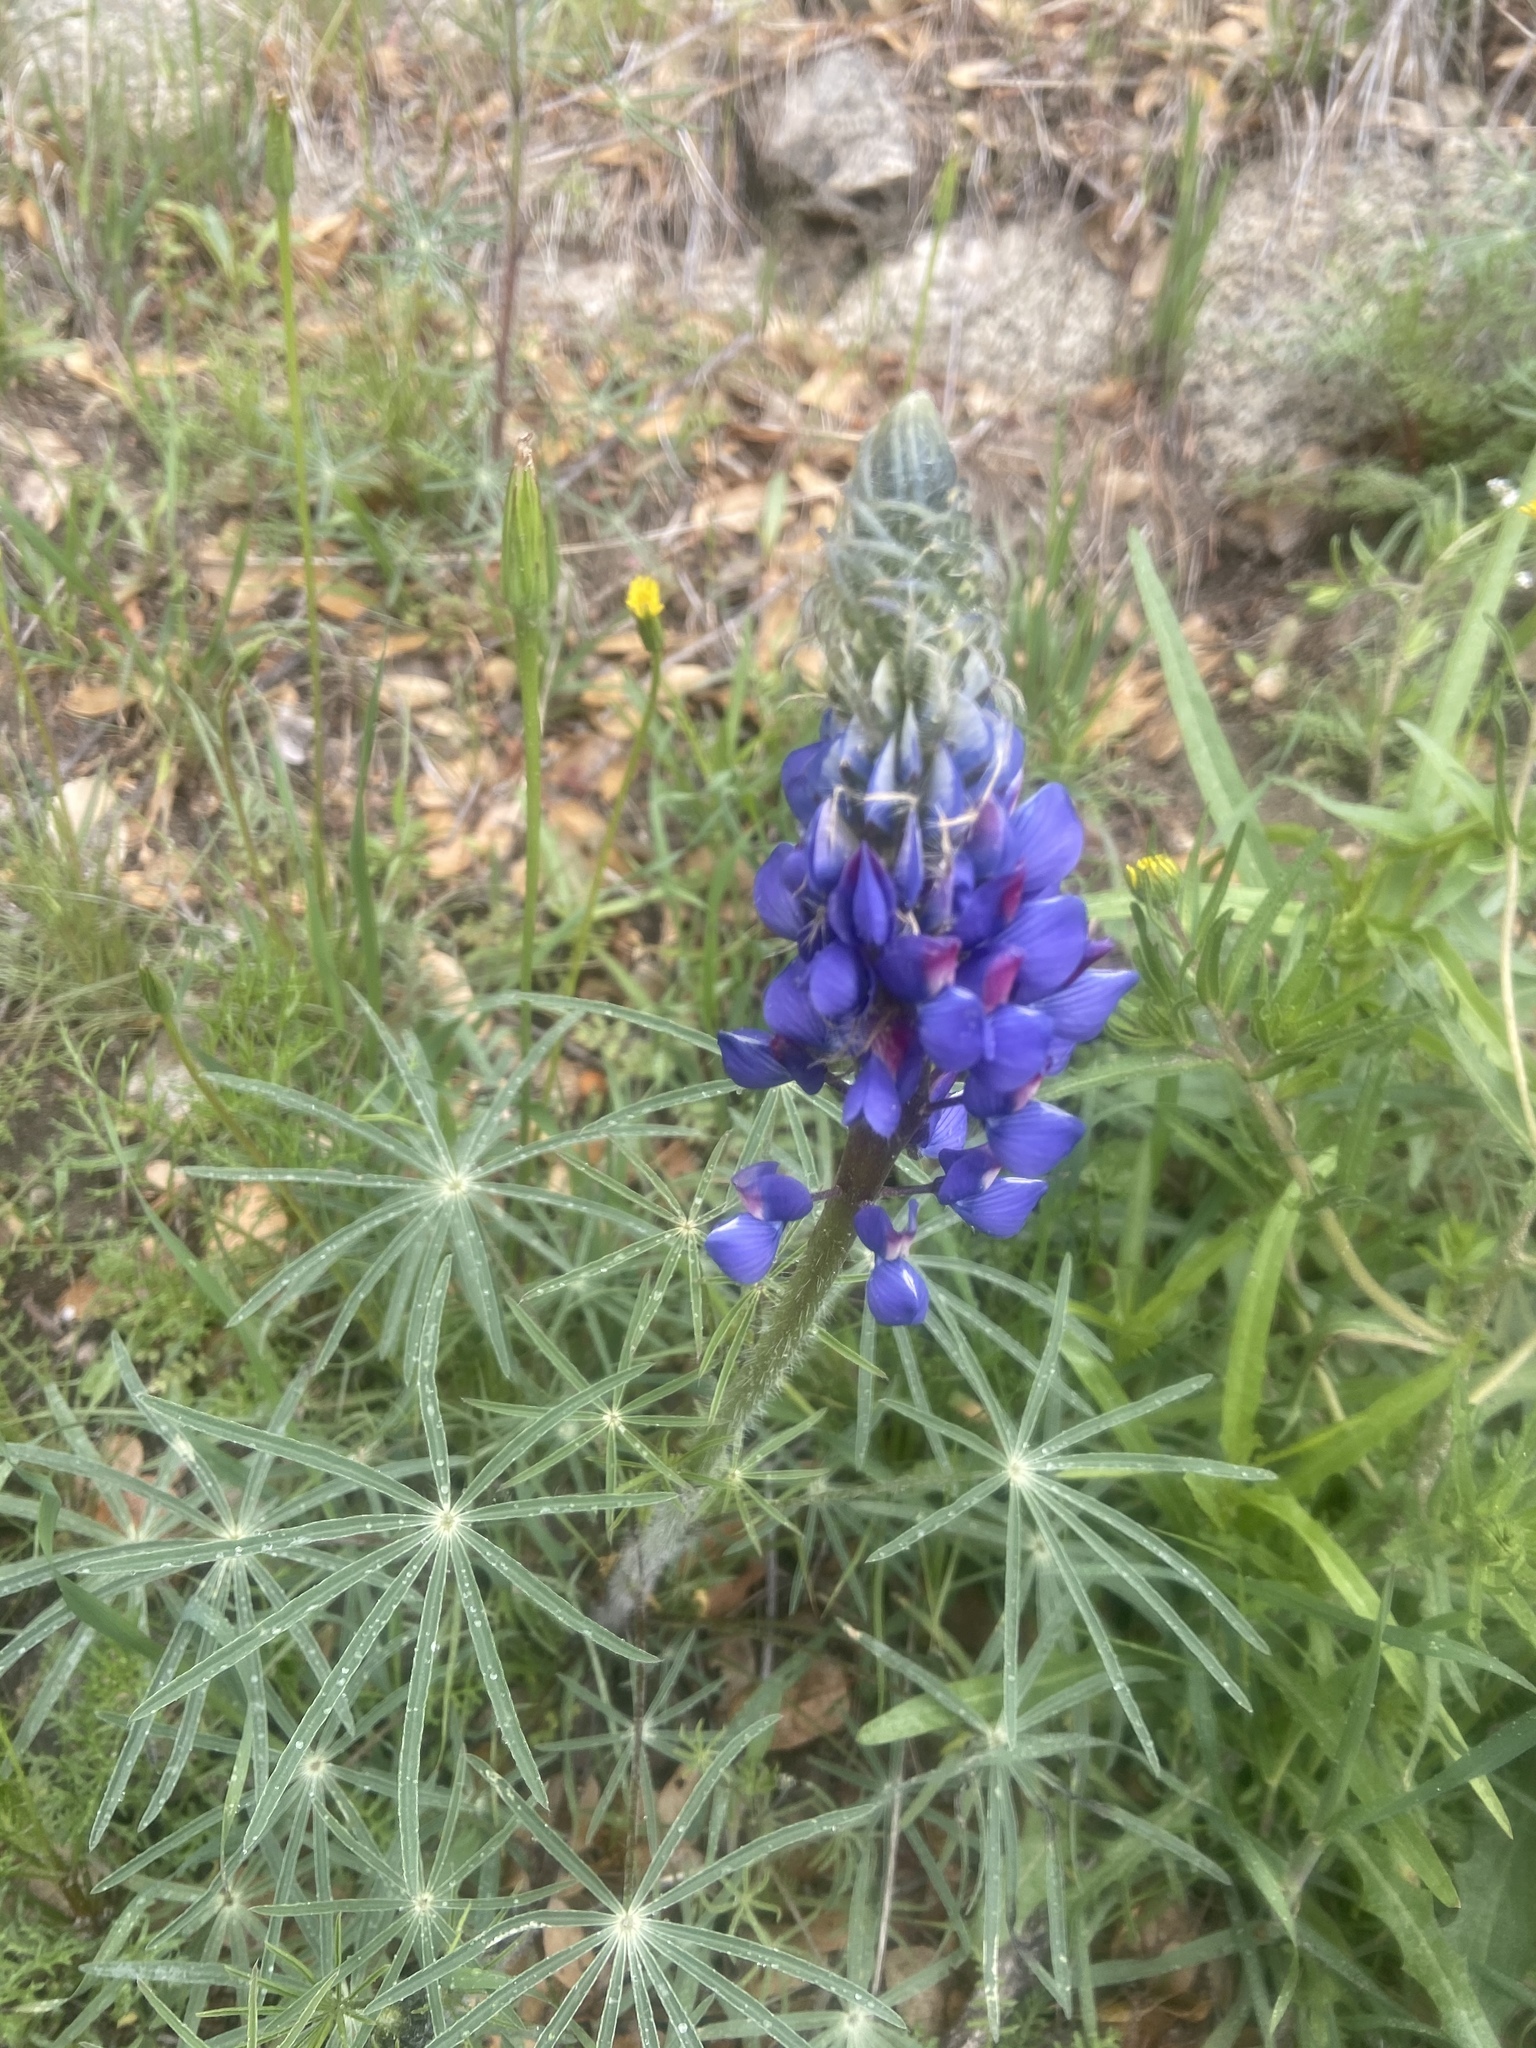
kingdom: Plantae
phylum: Tracheophyta
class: Magnoliopsida
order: Fabales
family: Fabaceae
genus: Lupinus
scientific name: Lupinus benthamii
